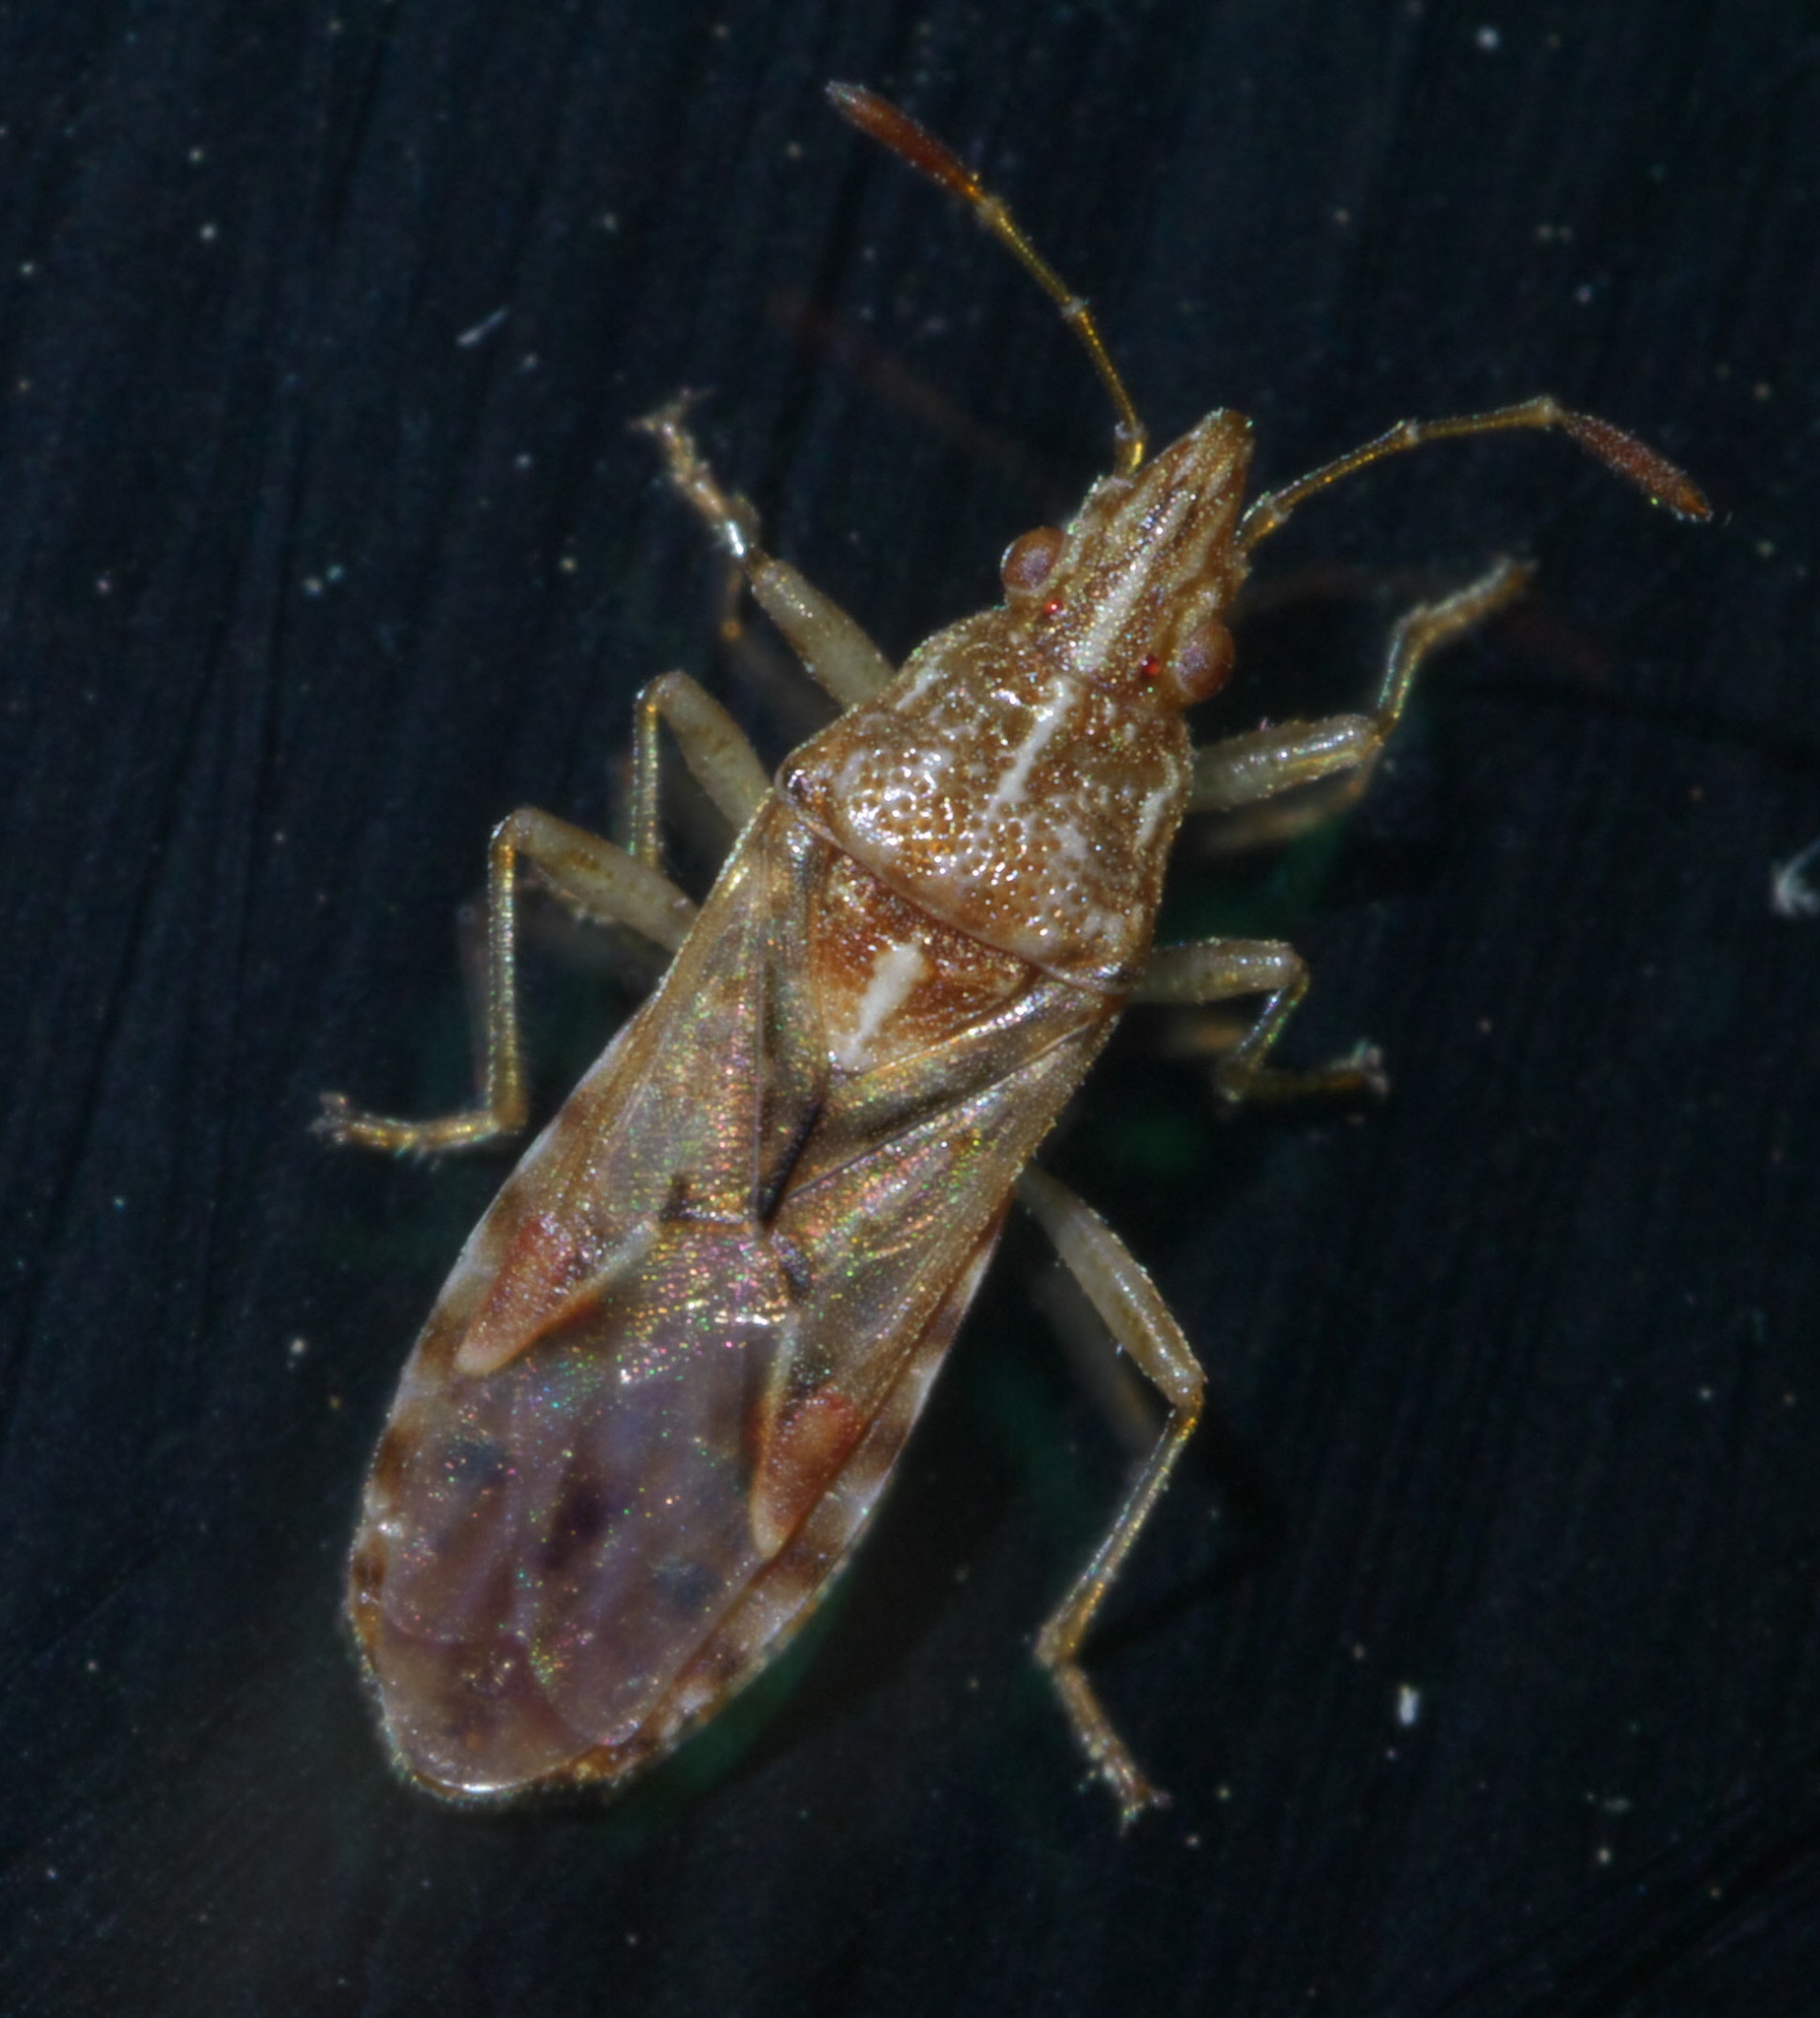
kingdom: Animalia
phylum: Arthropoda
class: Insecta
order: Hemiptera
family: Lygaeidae
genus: Belonochilus
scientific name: Belonochilus numenius
